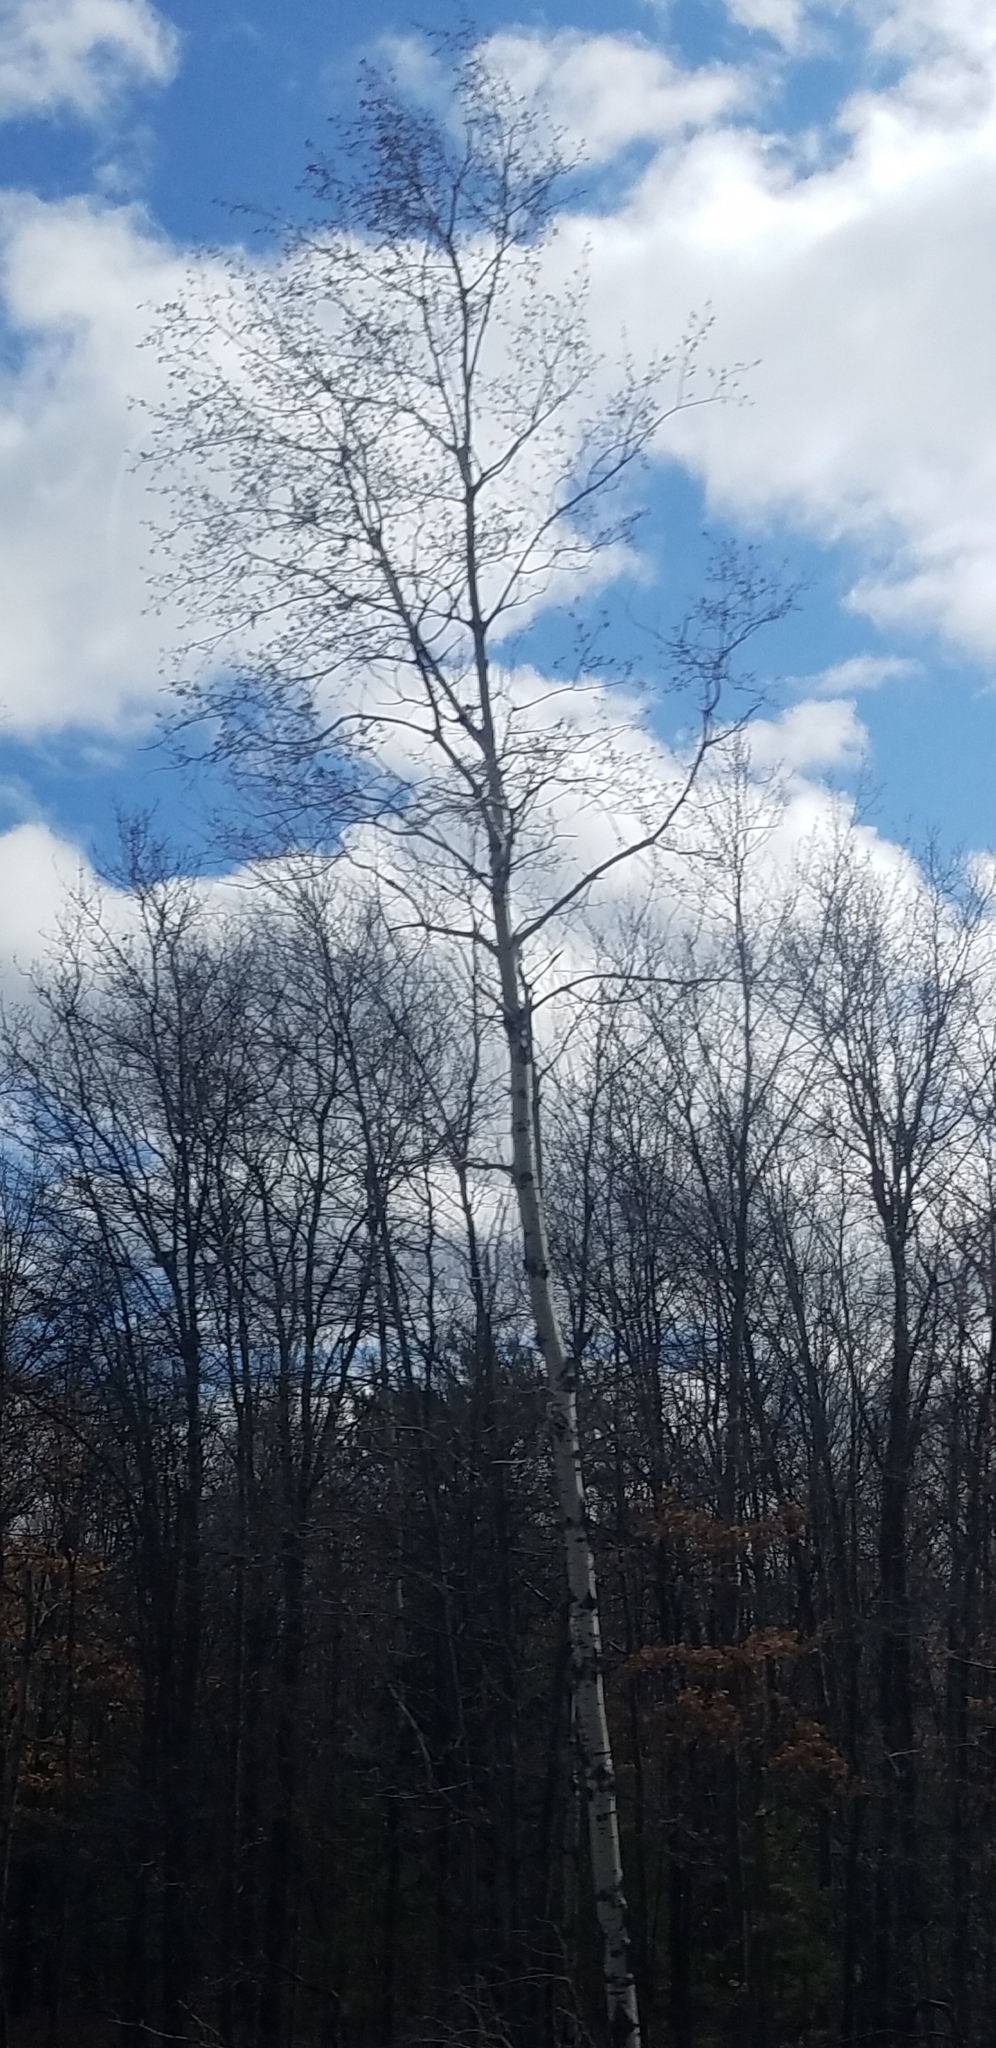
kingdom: Plantae
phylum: Tracheophyta
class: Magnoliopsida
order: Malpighiales
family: Salicaceae
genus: Populus
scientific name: Populus tremuloides
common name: Quaking aspen
